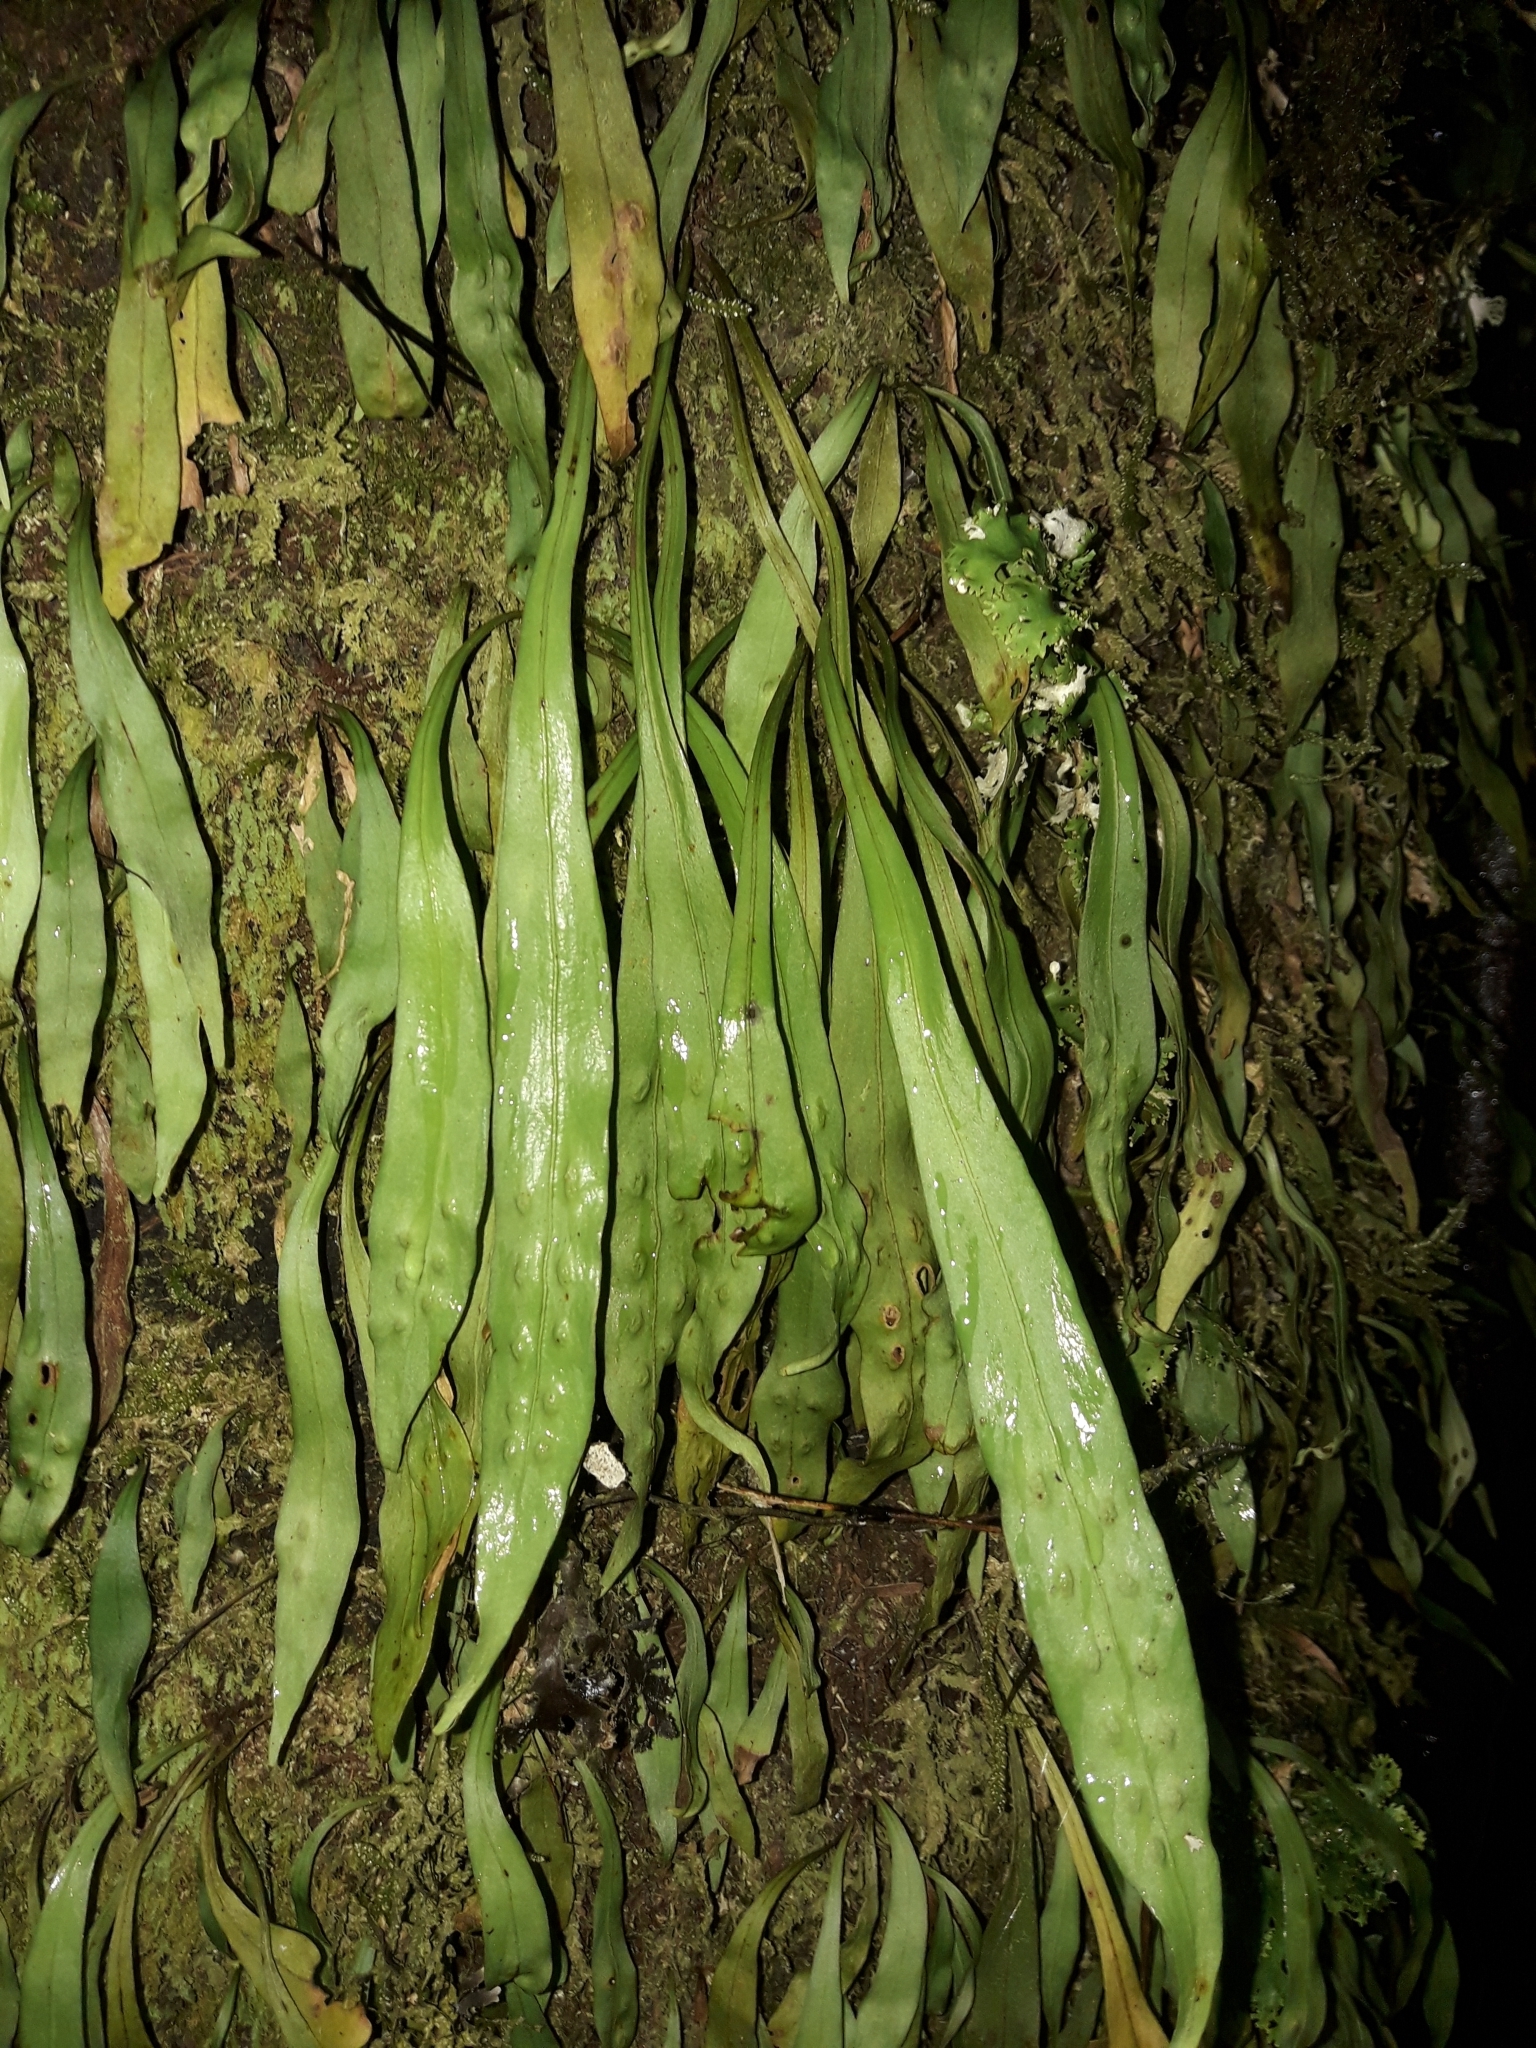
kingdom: Plantae
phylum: Tracheophyta
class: Polypodiopsida
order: Polypodiales
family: Polypodiaceae
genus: Loxogramme
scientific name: Loxogramme dictyopteris
